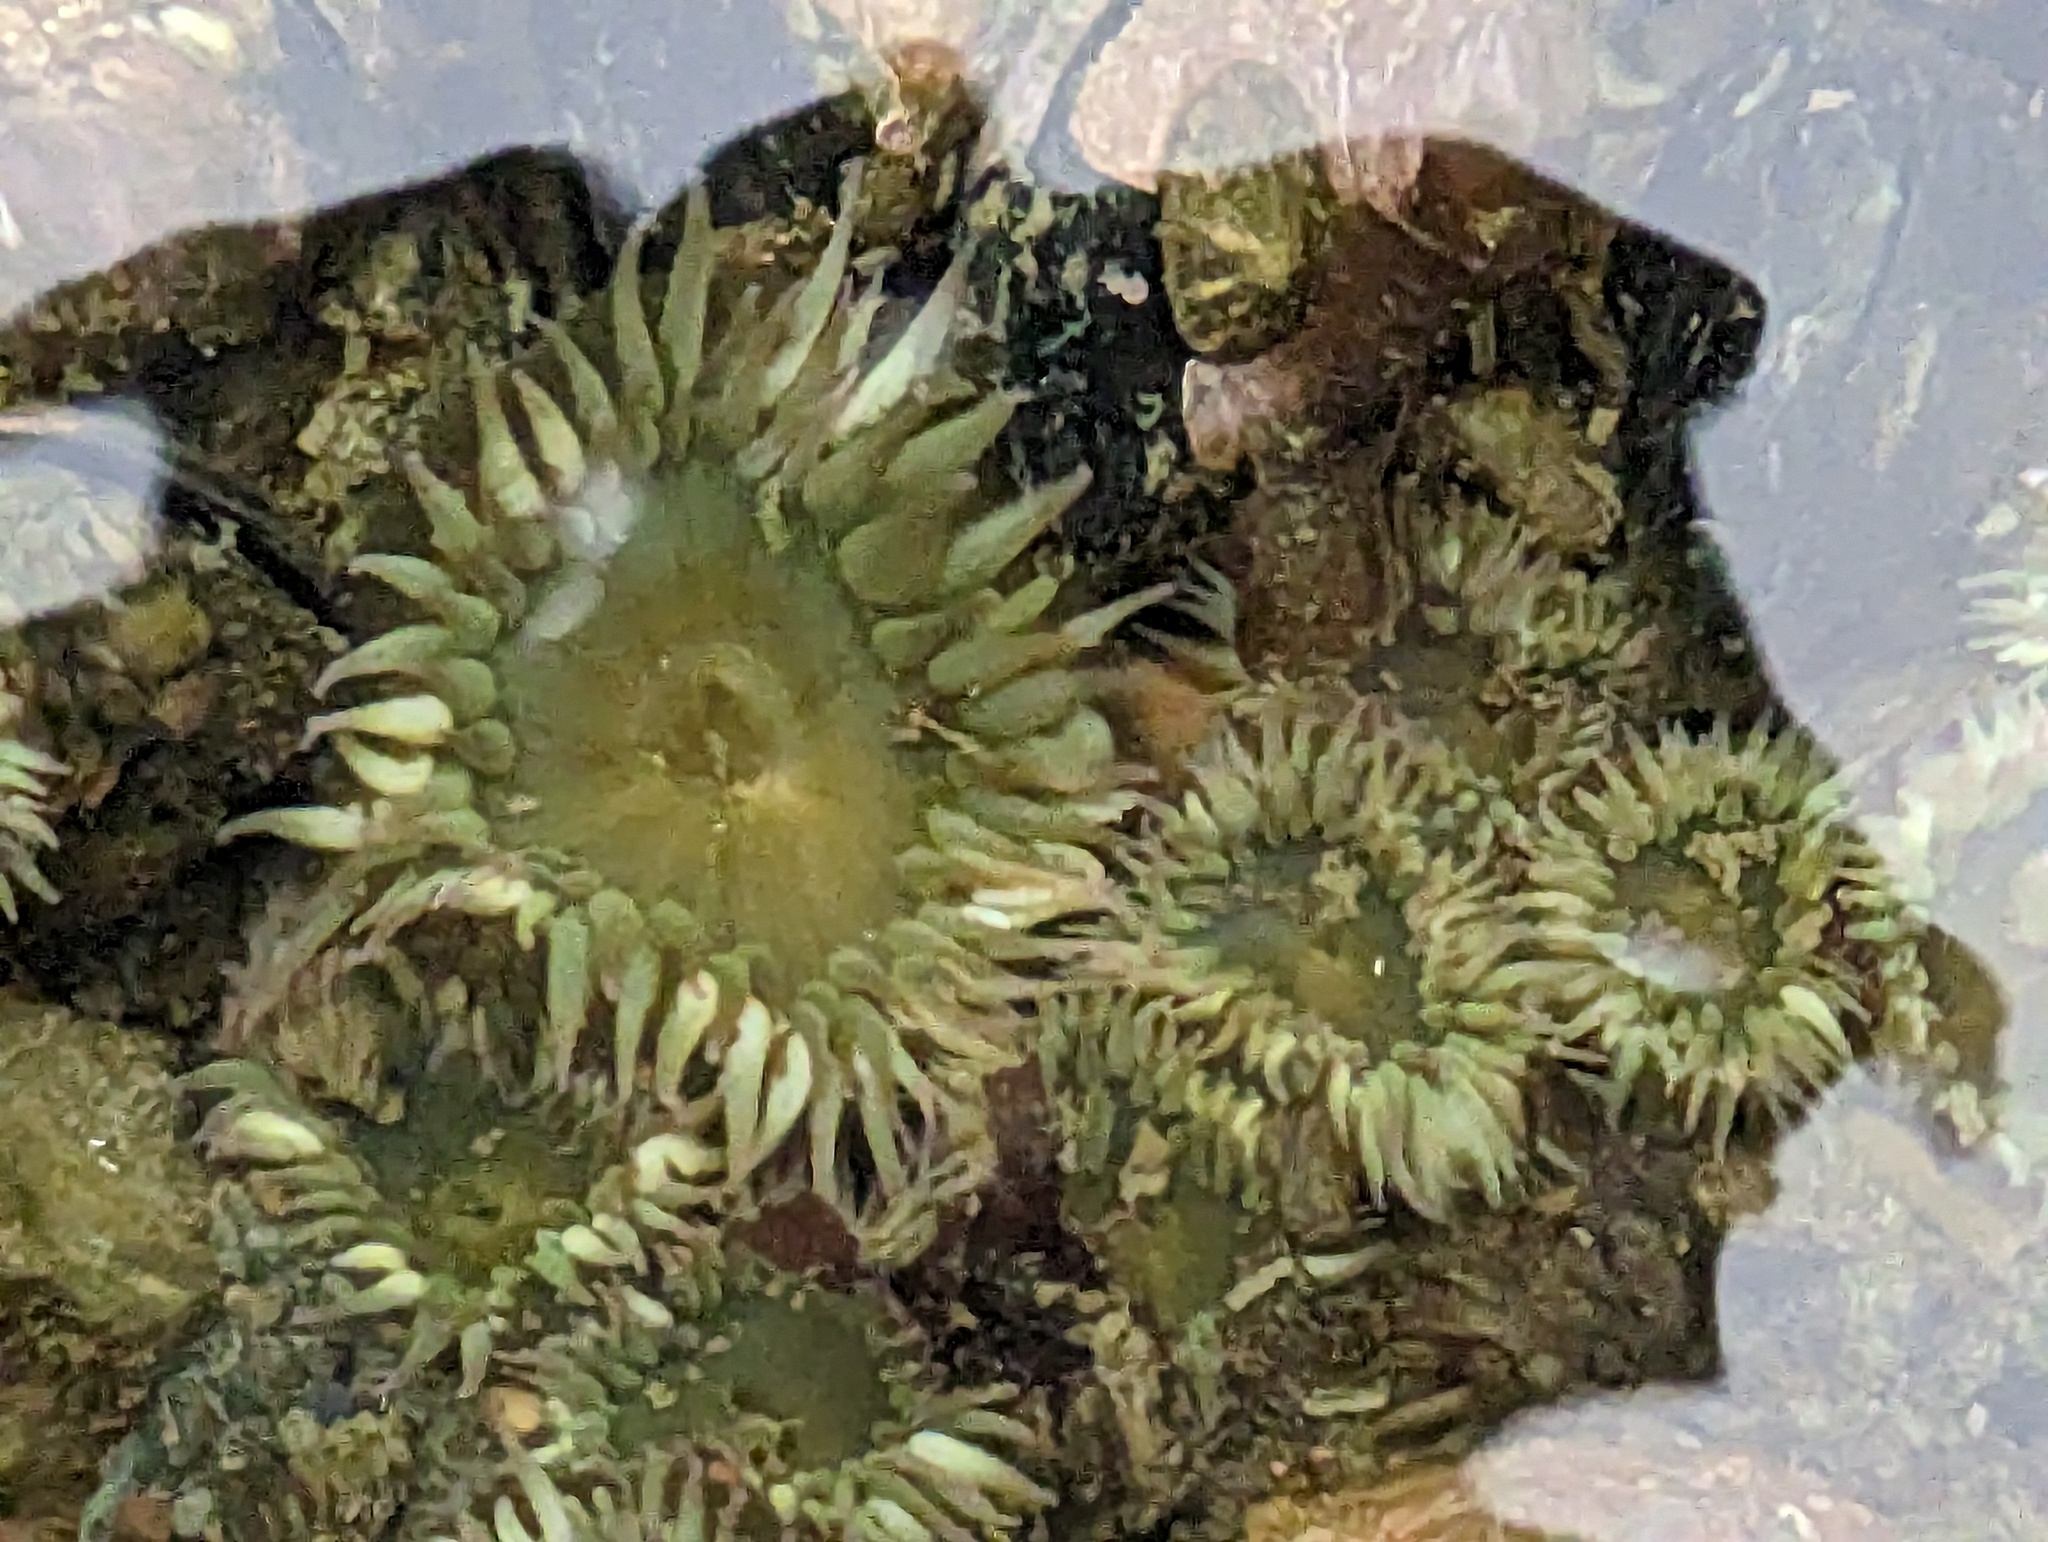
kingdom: Animalia
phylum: Cnidaria
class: Anthozoa
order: Actiniaria
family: Actiniidae
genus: Anthopleura
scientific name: Anthopleura elegantissima
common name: Clonal anemone
